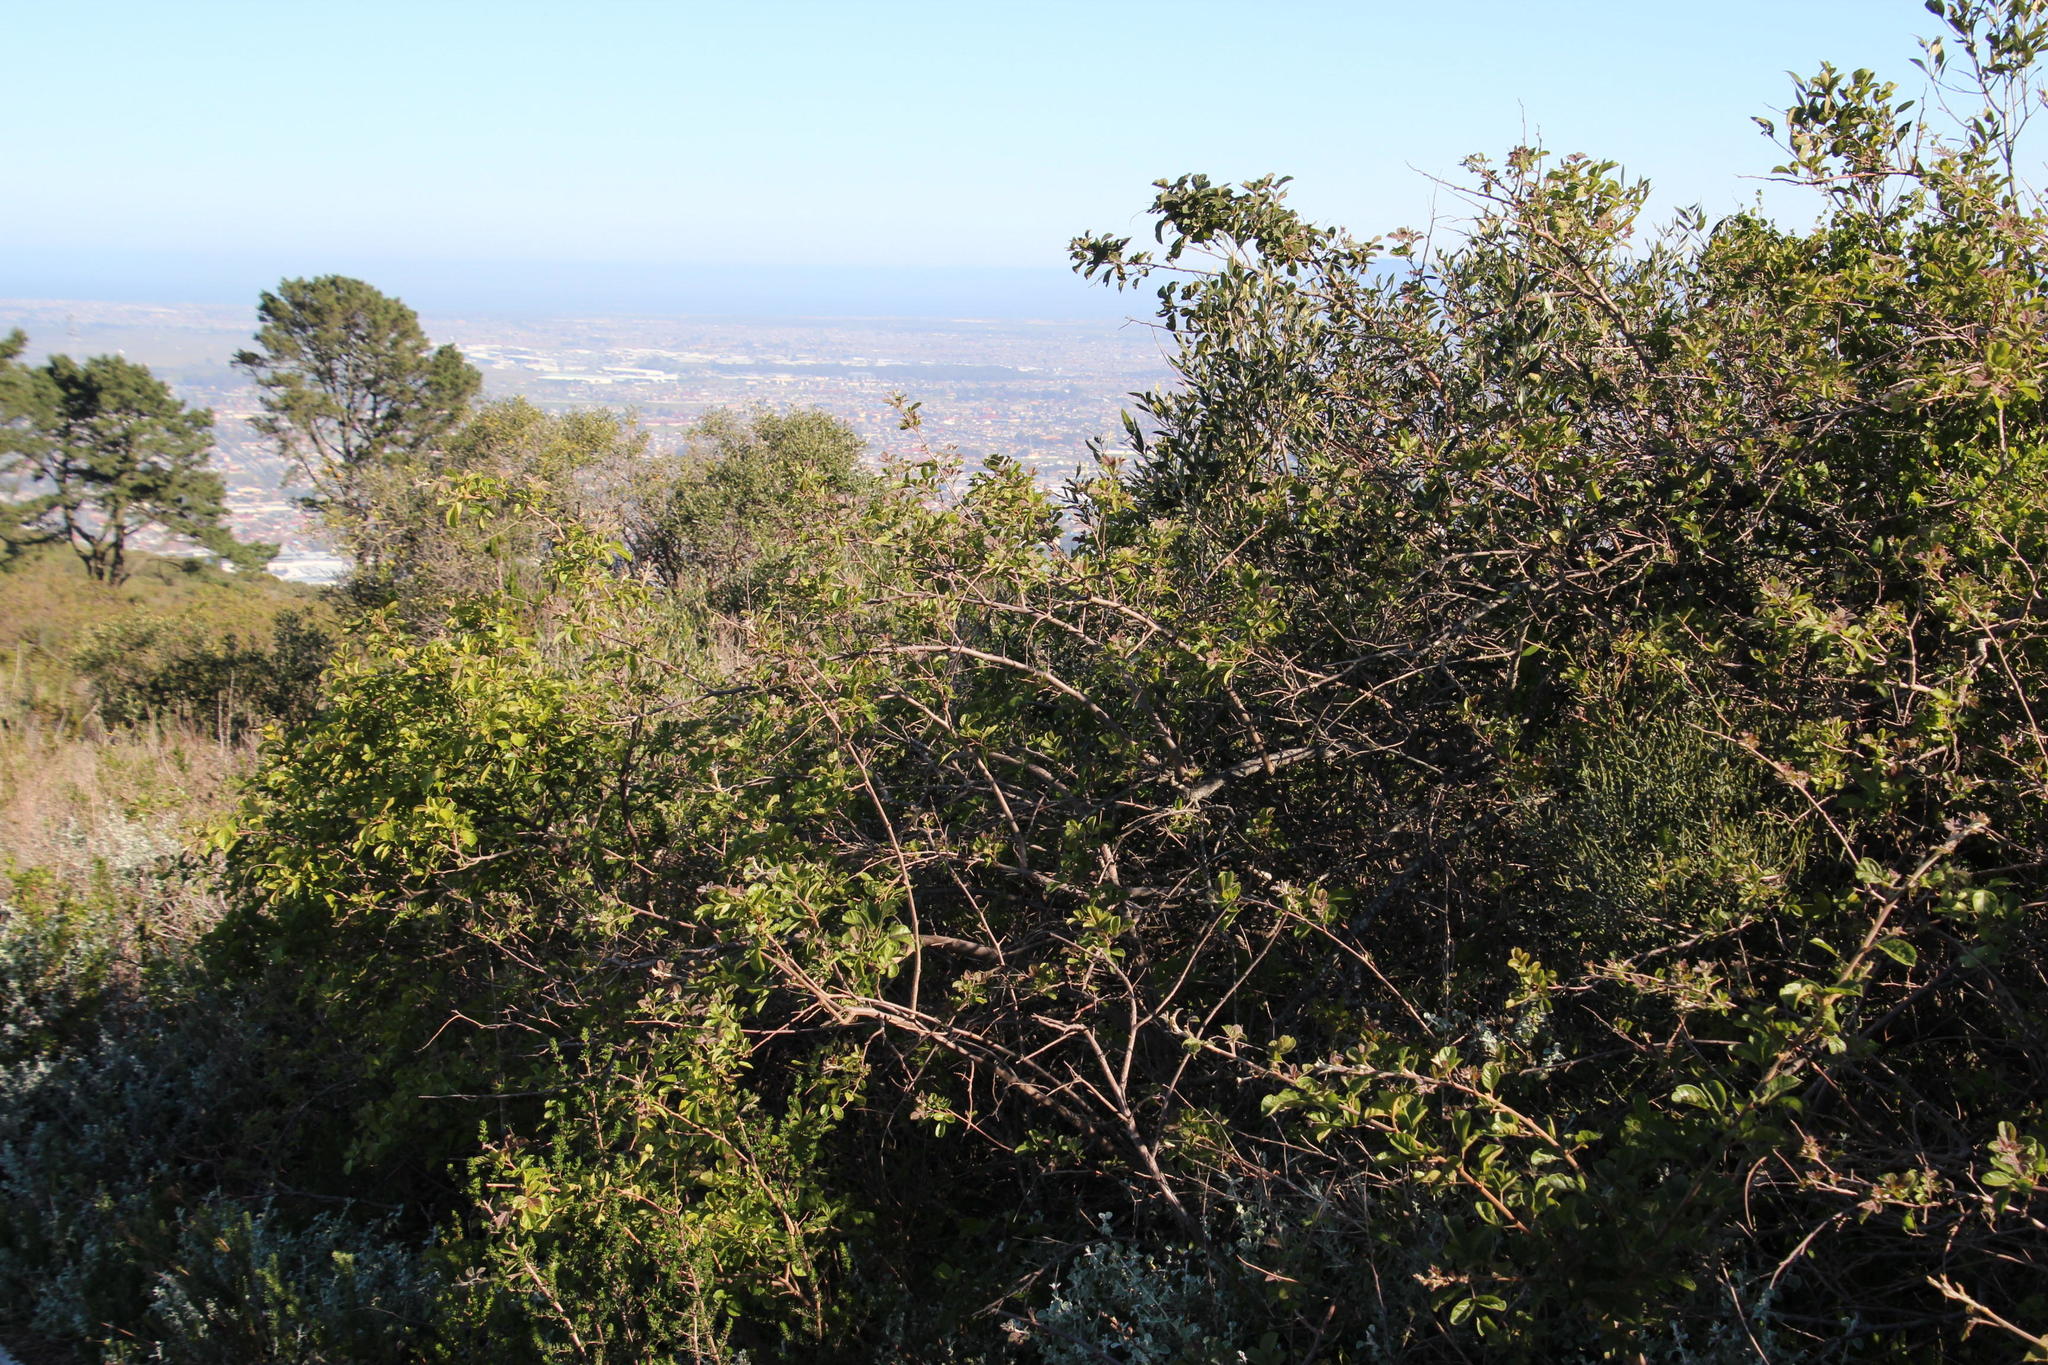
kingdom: Plantae
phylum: Tracheophyta
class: Magnoliopsida
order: Sapindales
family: Anacardiaceae
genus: Searsia
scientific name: Searsia rehmanniana
